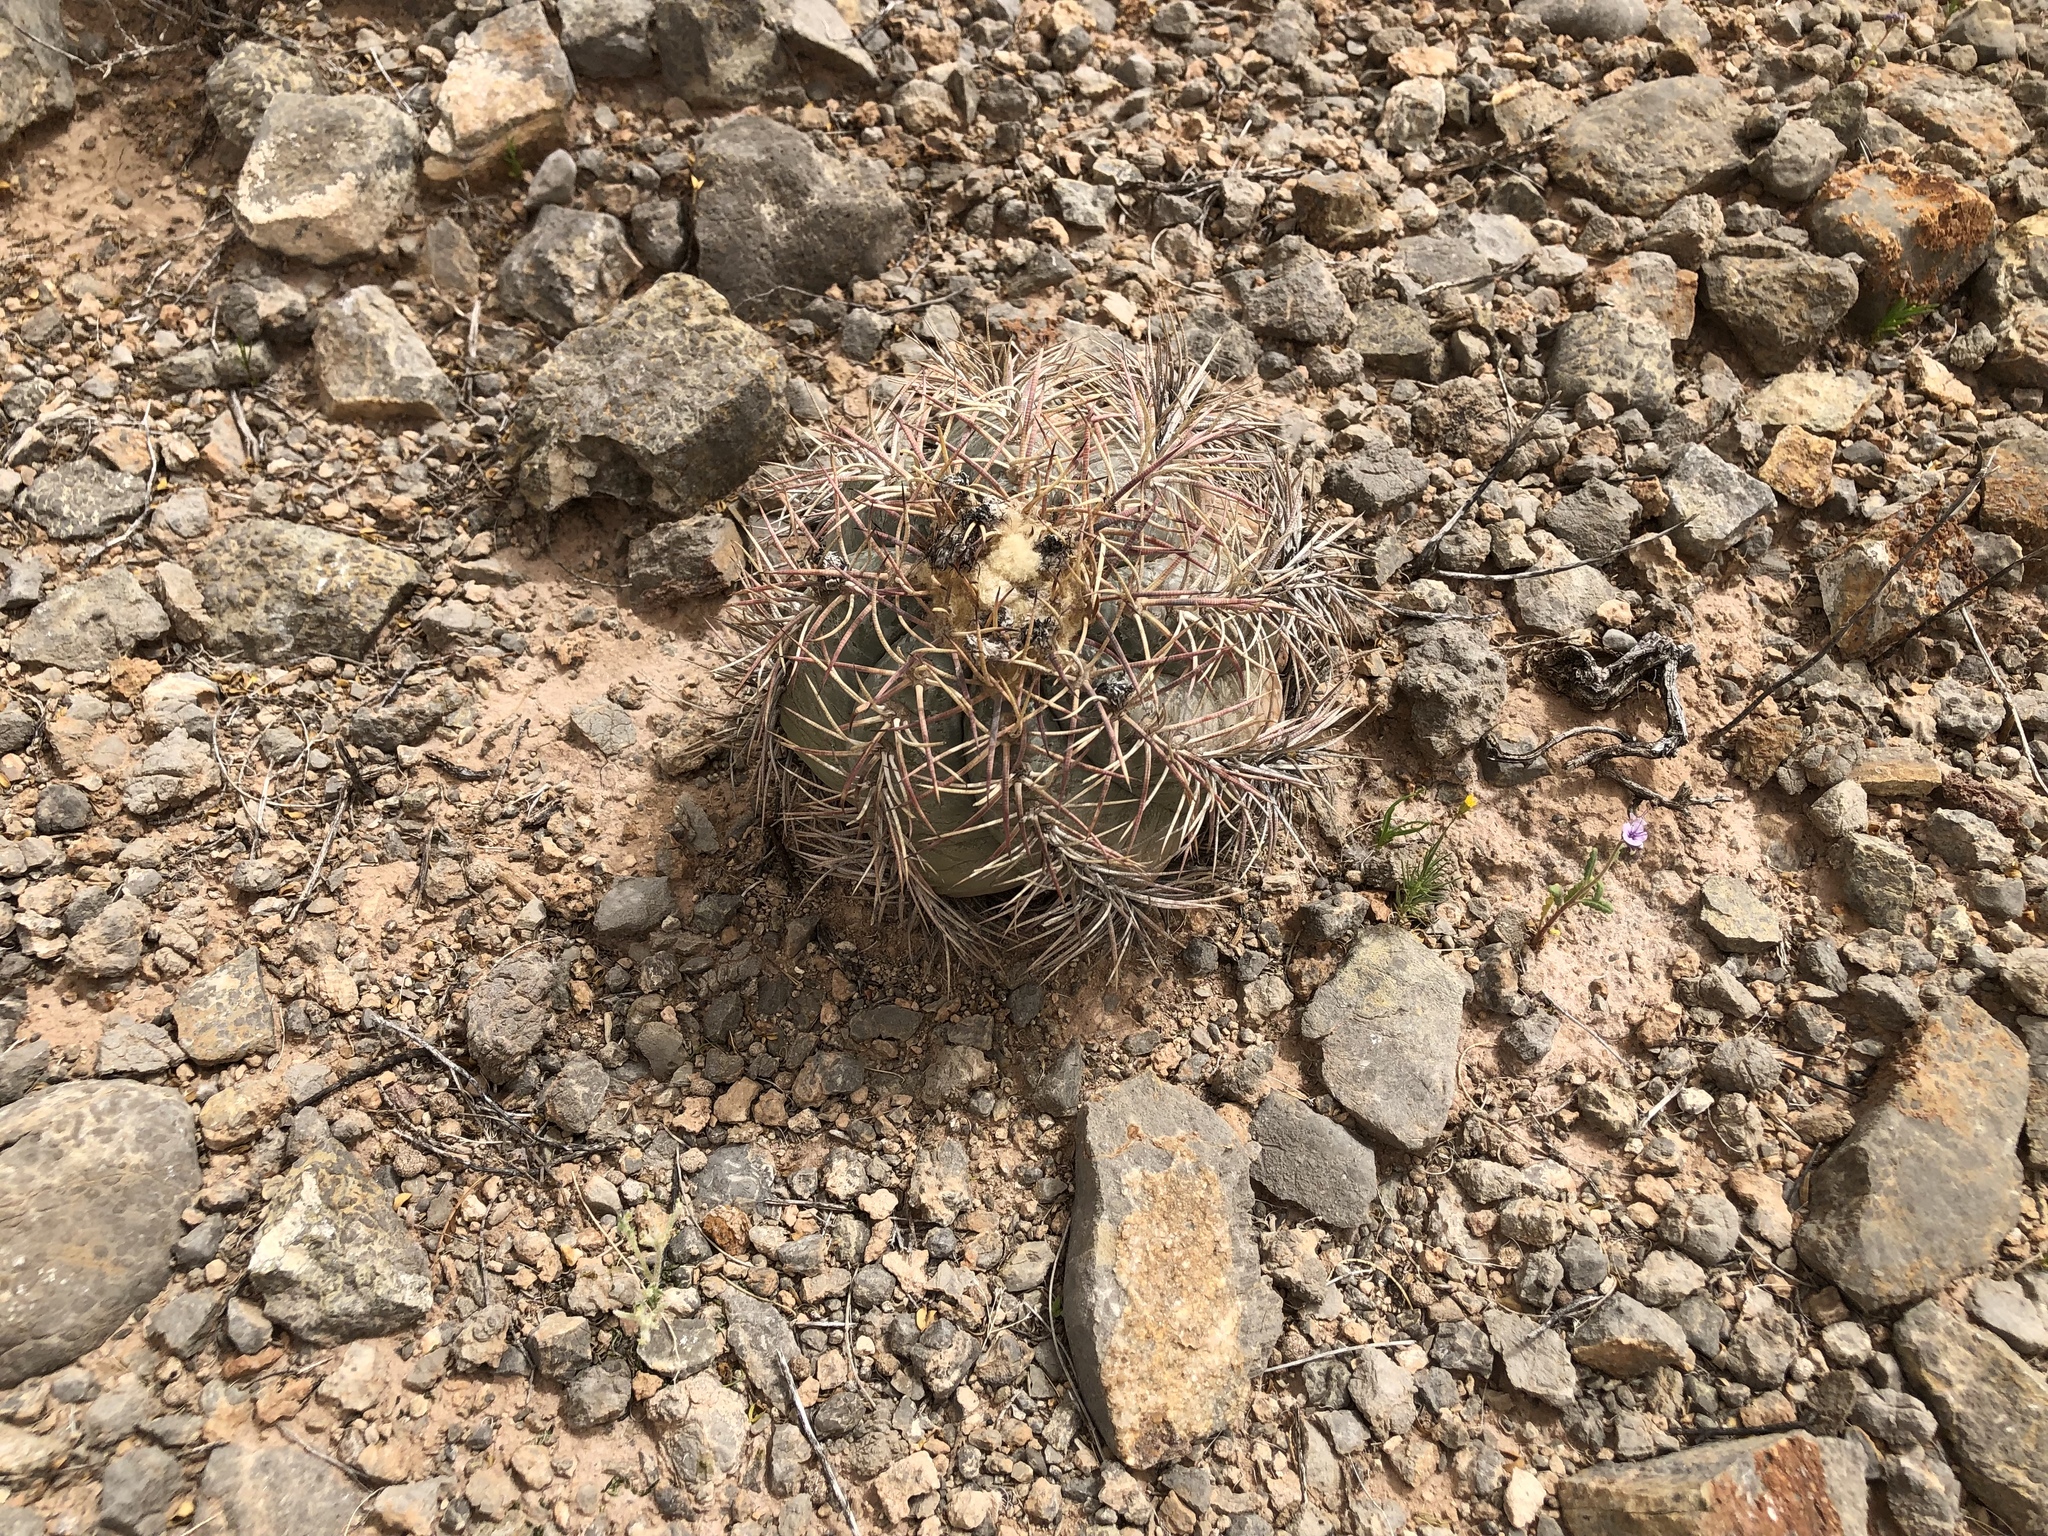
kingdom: Plantae
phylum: Tracheophyta
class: Magnoliopsida
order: Caryophyllales
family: Cactaceae
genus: Echinocactus
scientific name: Echinocactus horizonthalonius
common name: Devilshead
